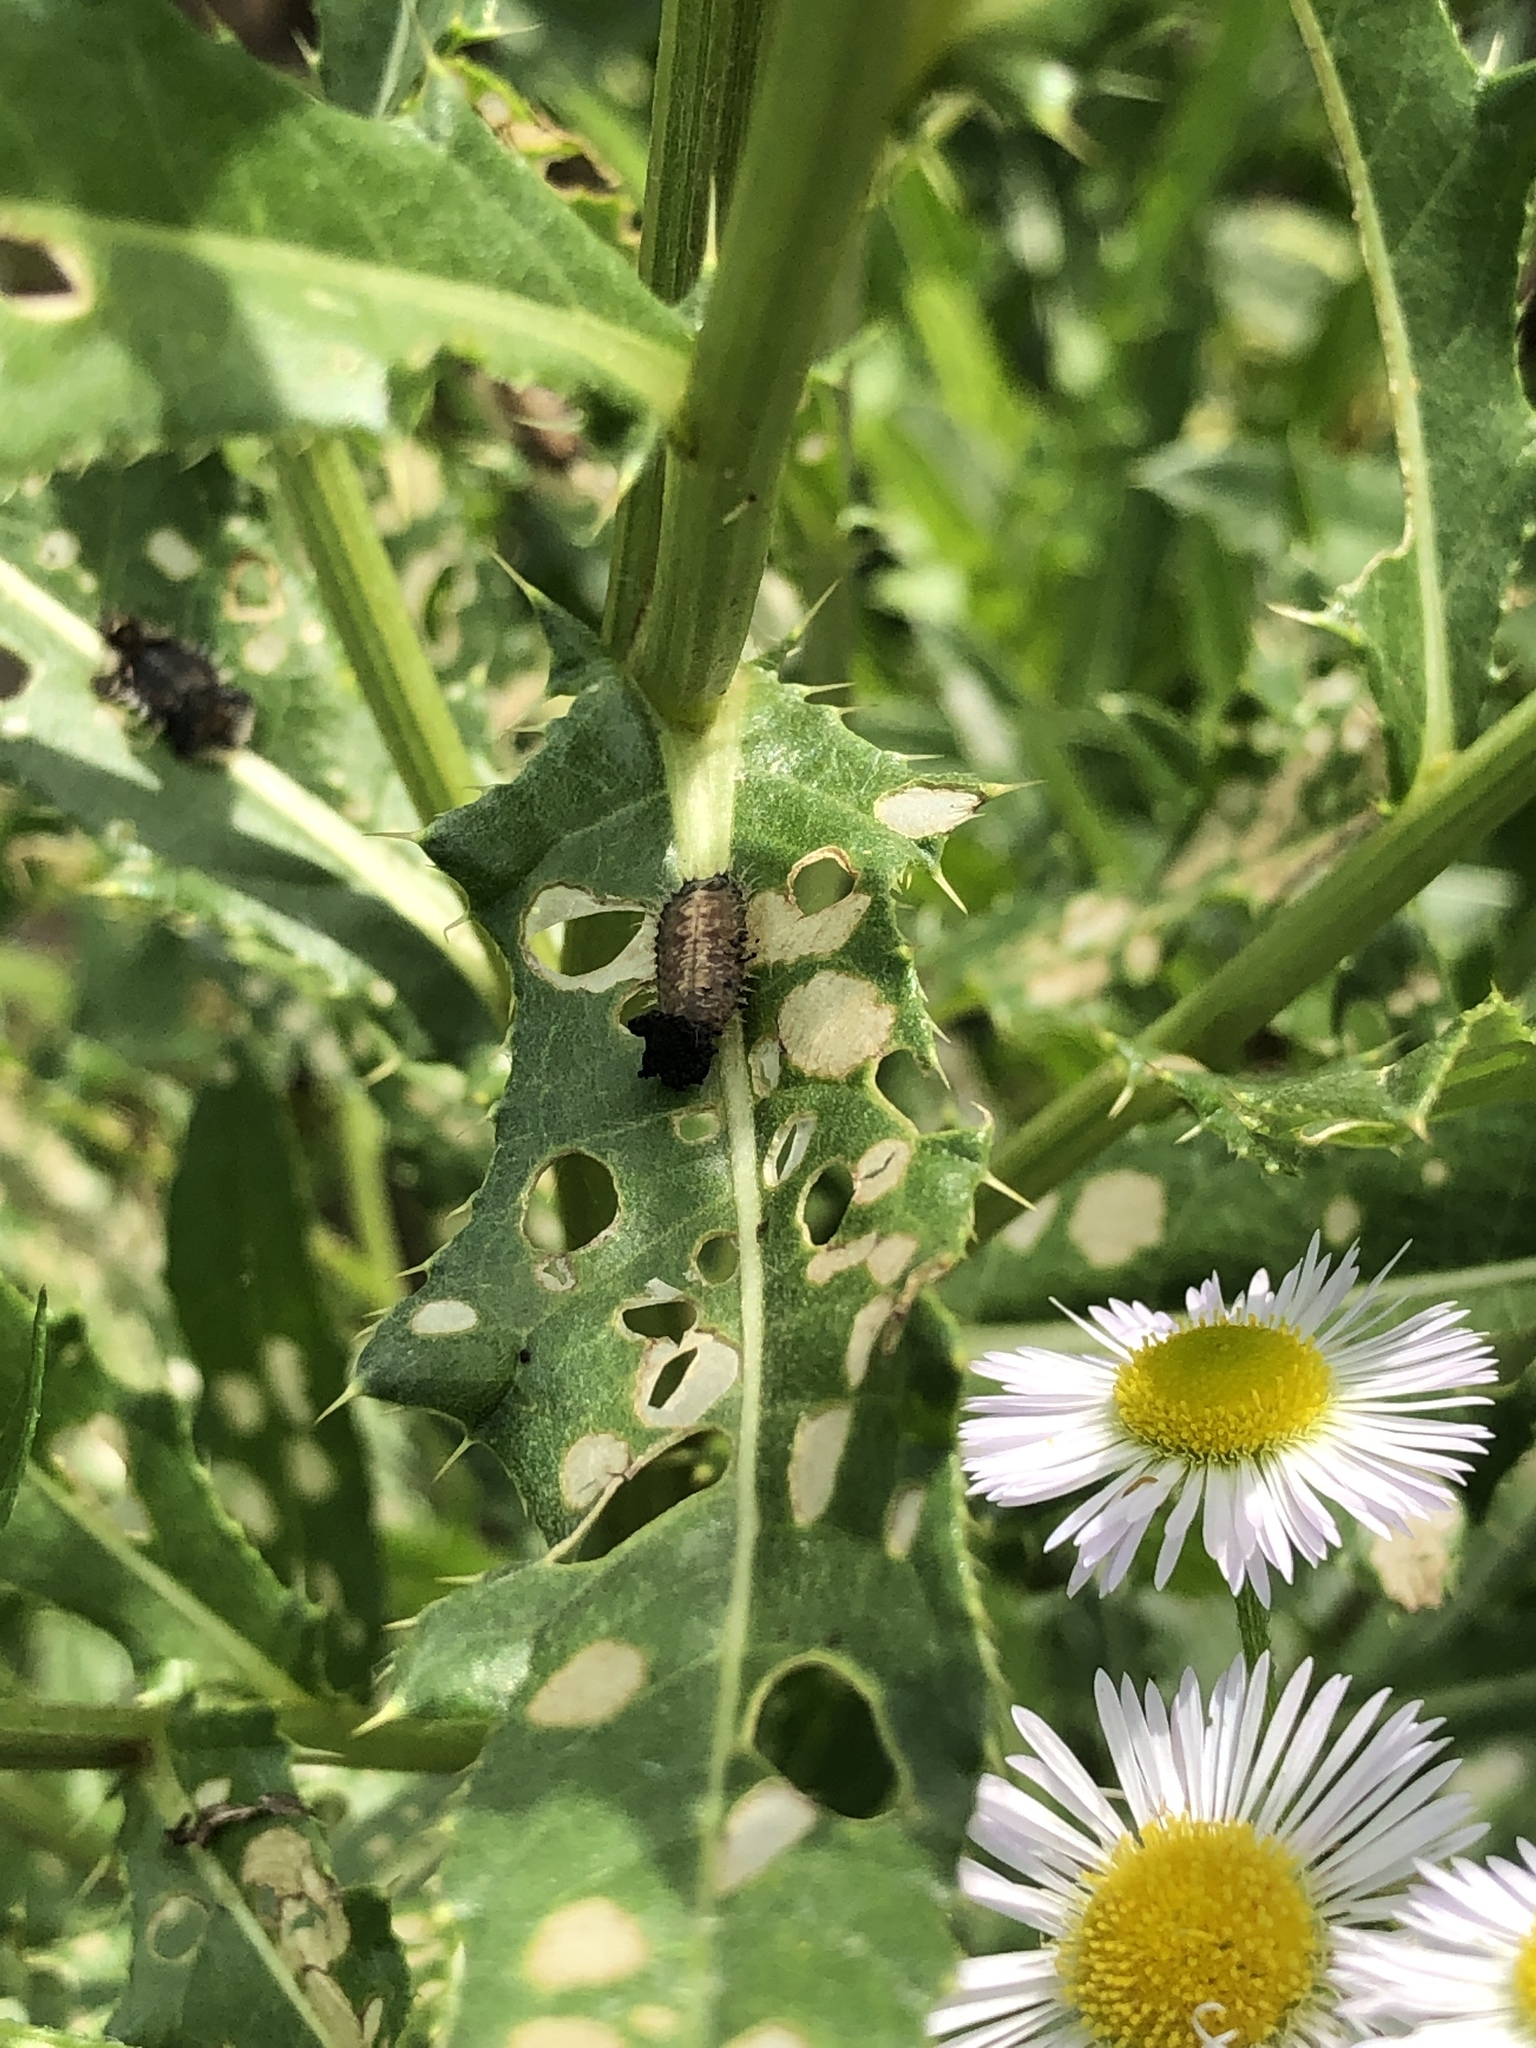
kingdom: Animalia
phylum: Arthropoda
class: Insecta
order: Coleoptera
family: Chrysomelidae
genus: Cassida
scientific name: Cassida rubiginosa
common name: Thistle tortoise beetle
